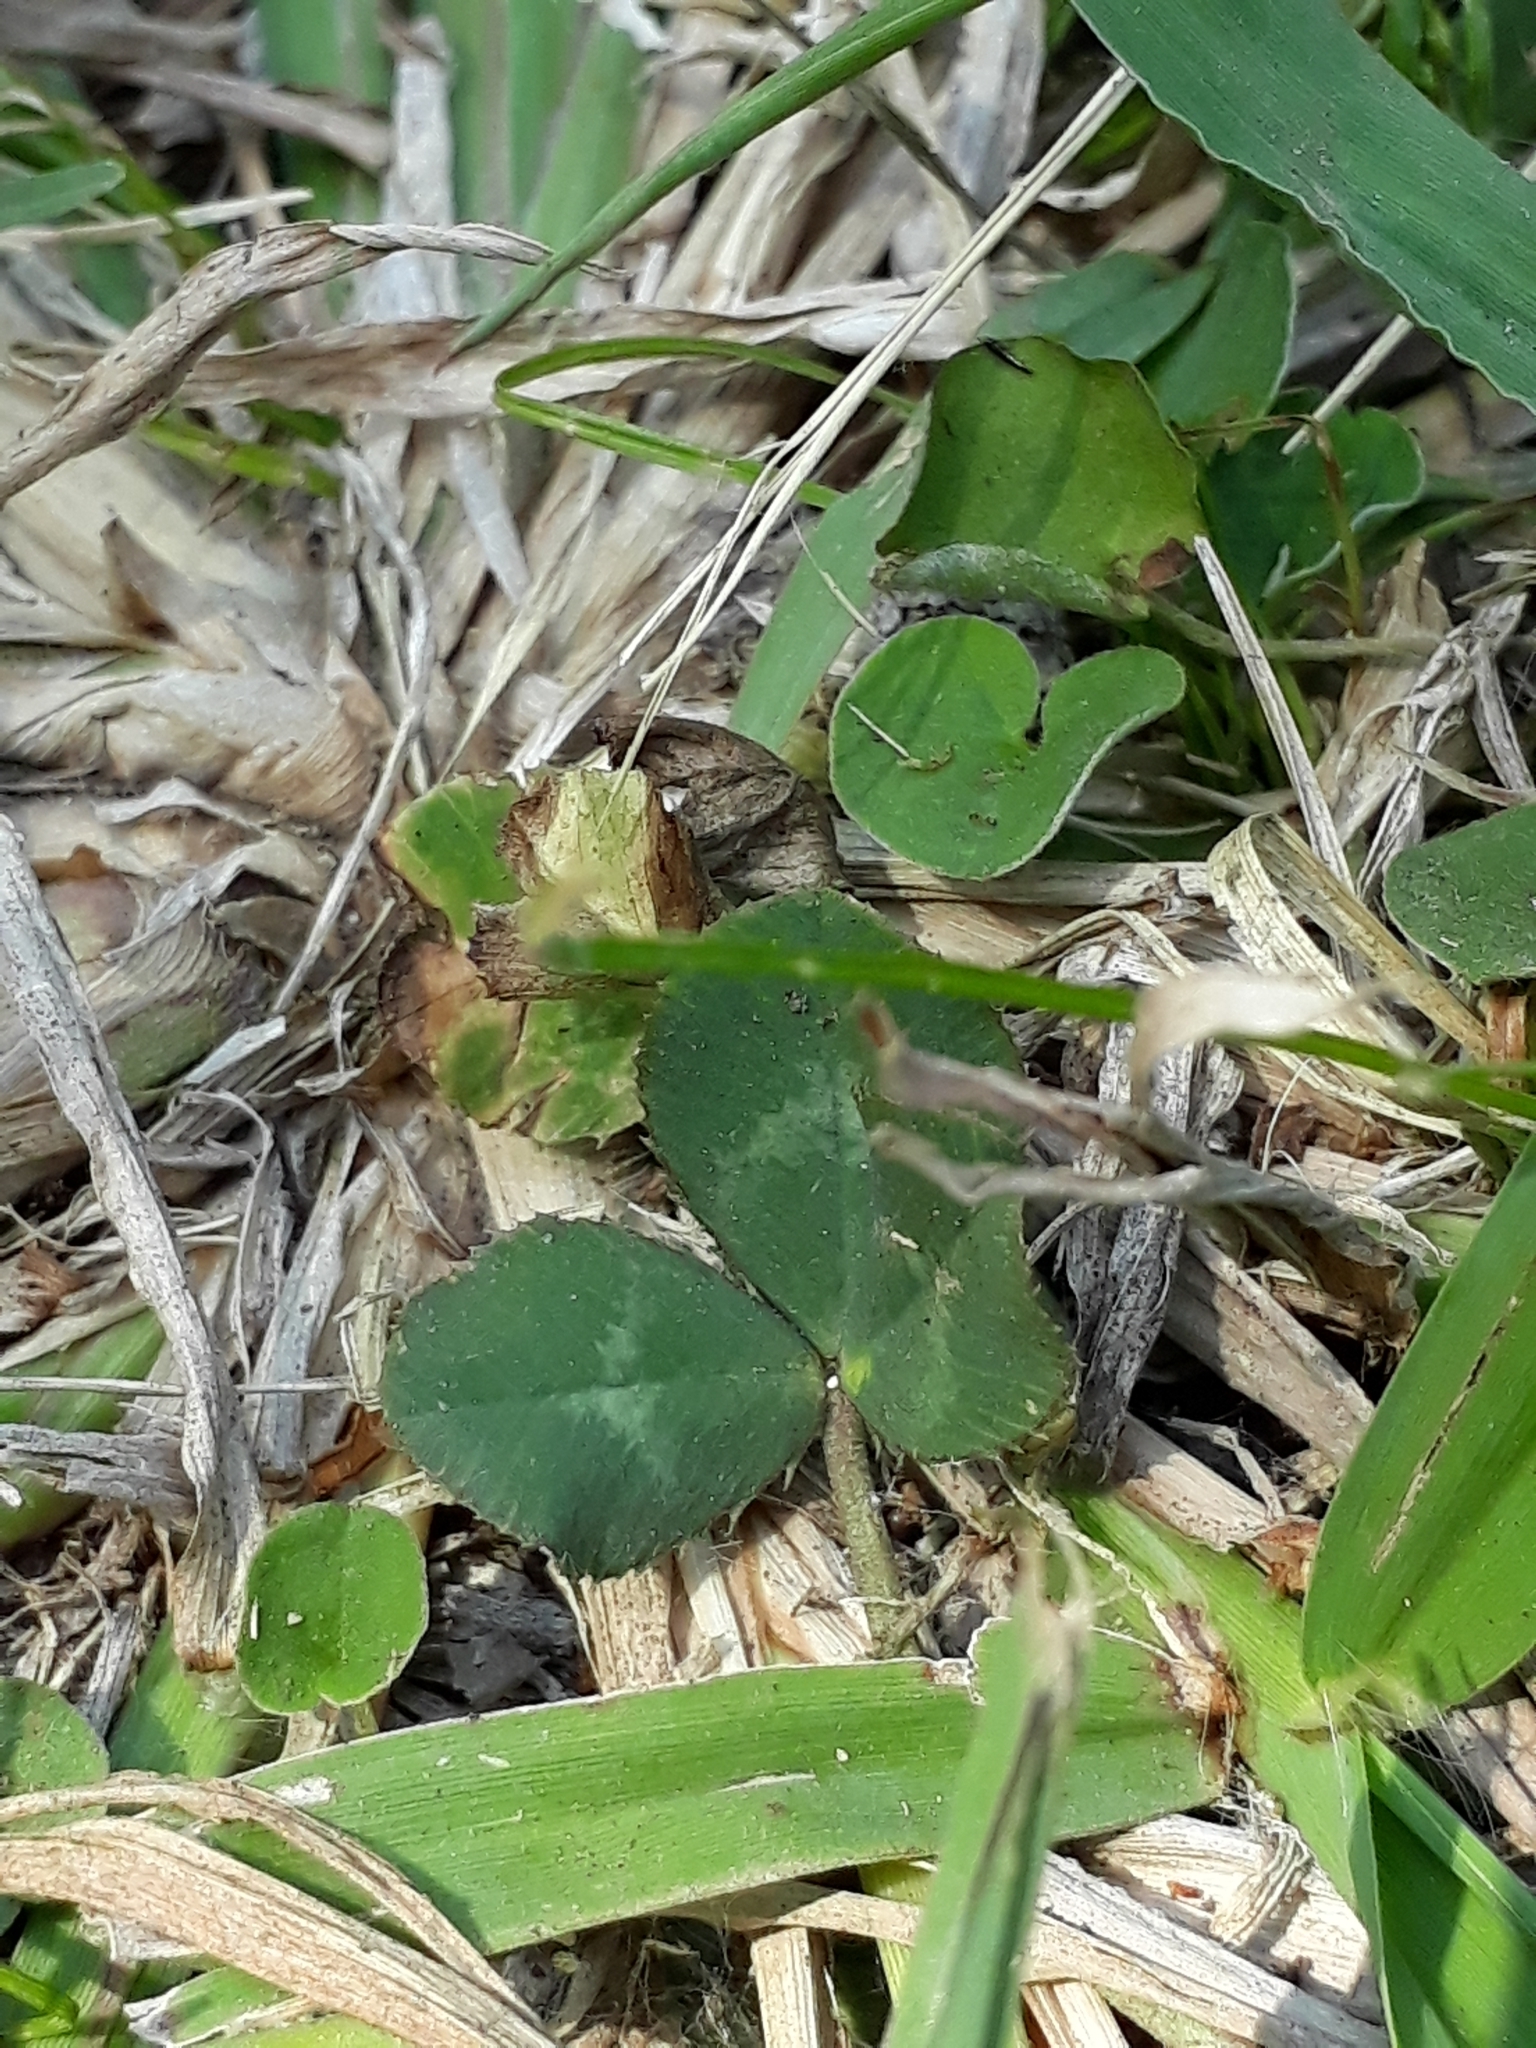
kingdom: Plantae
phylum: Tracheophyta
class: Magnoliopsida
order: Fabales
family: Fabaceae
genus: Trifolium
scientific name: Trifolium repens
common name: White clover
